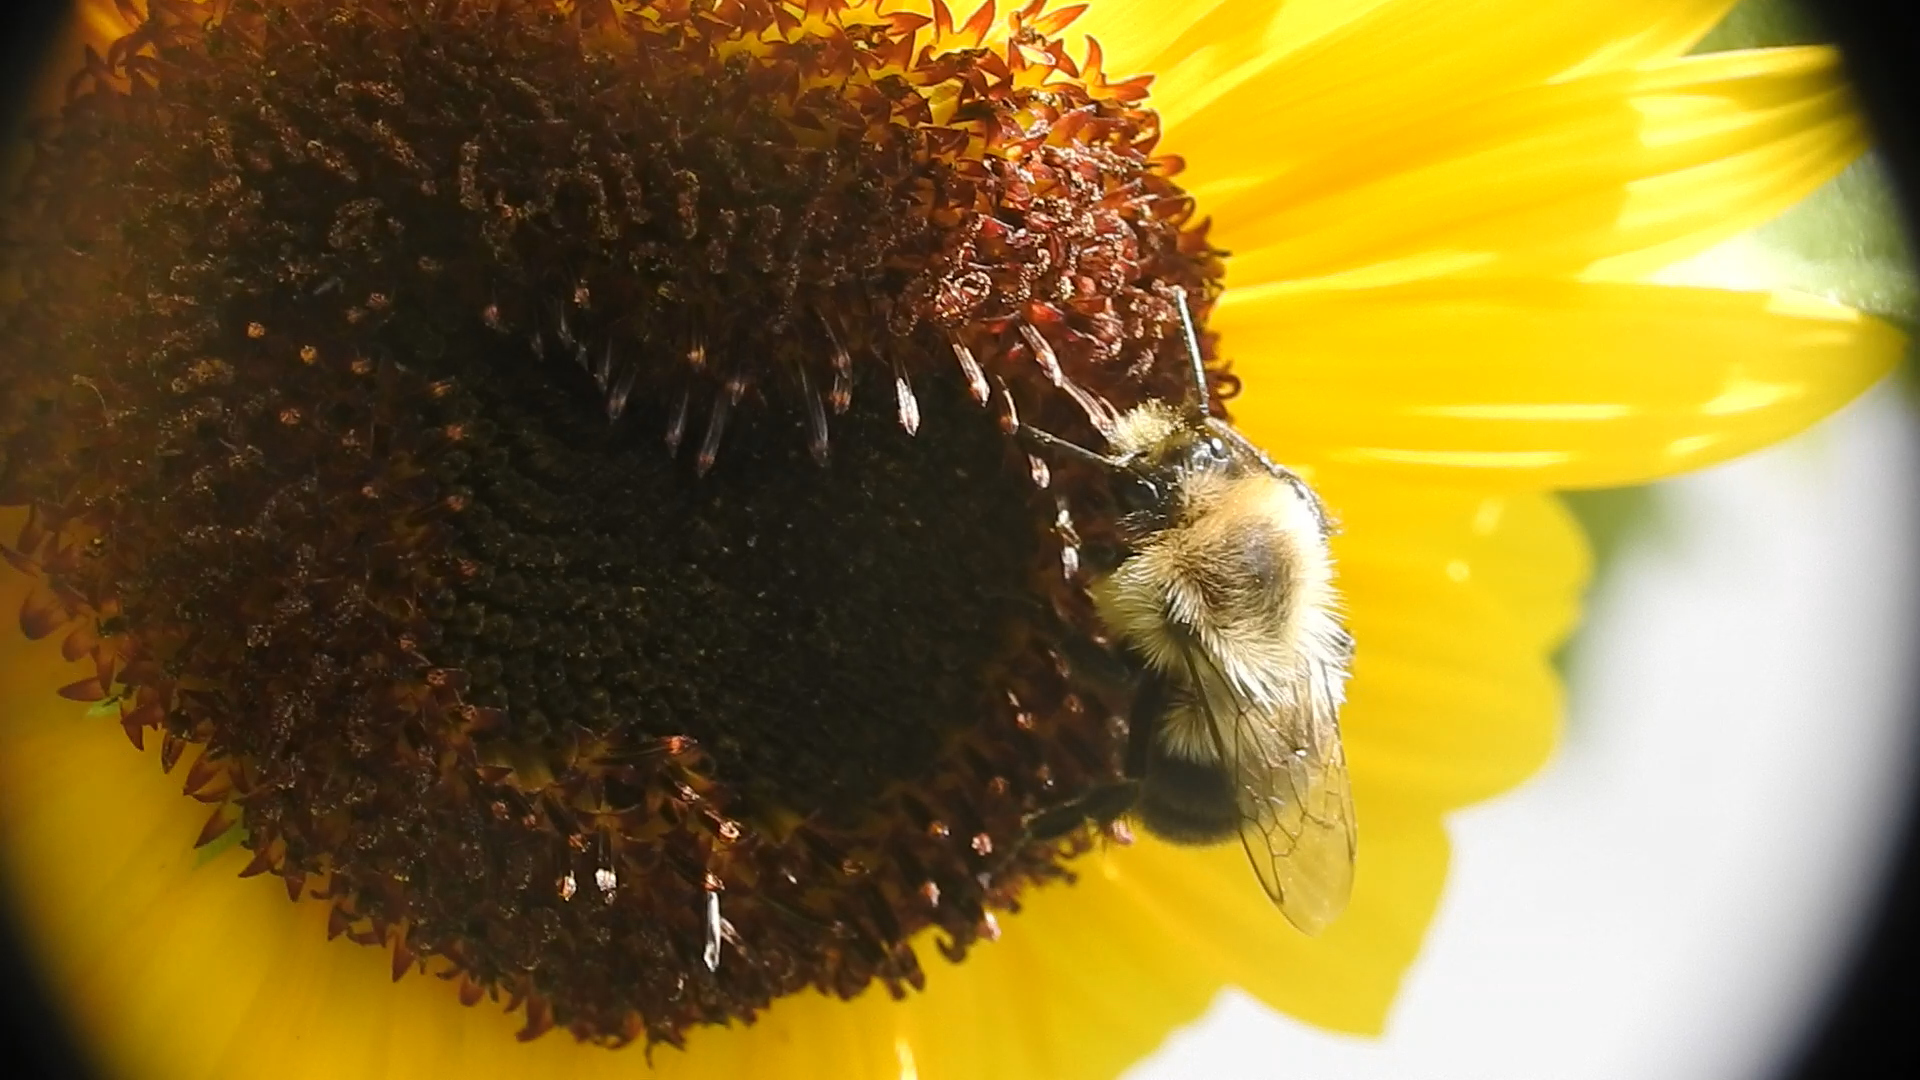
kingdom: Animalia
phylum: Arthropoda
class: Insecta
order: Hymenoptera
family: Apidae
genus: Bombus
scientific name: Bombus impatiens
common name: Common eastern bumble bee
